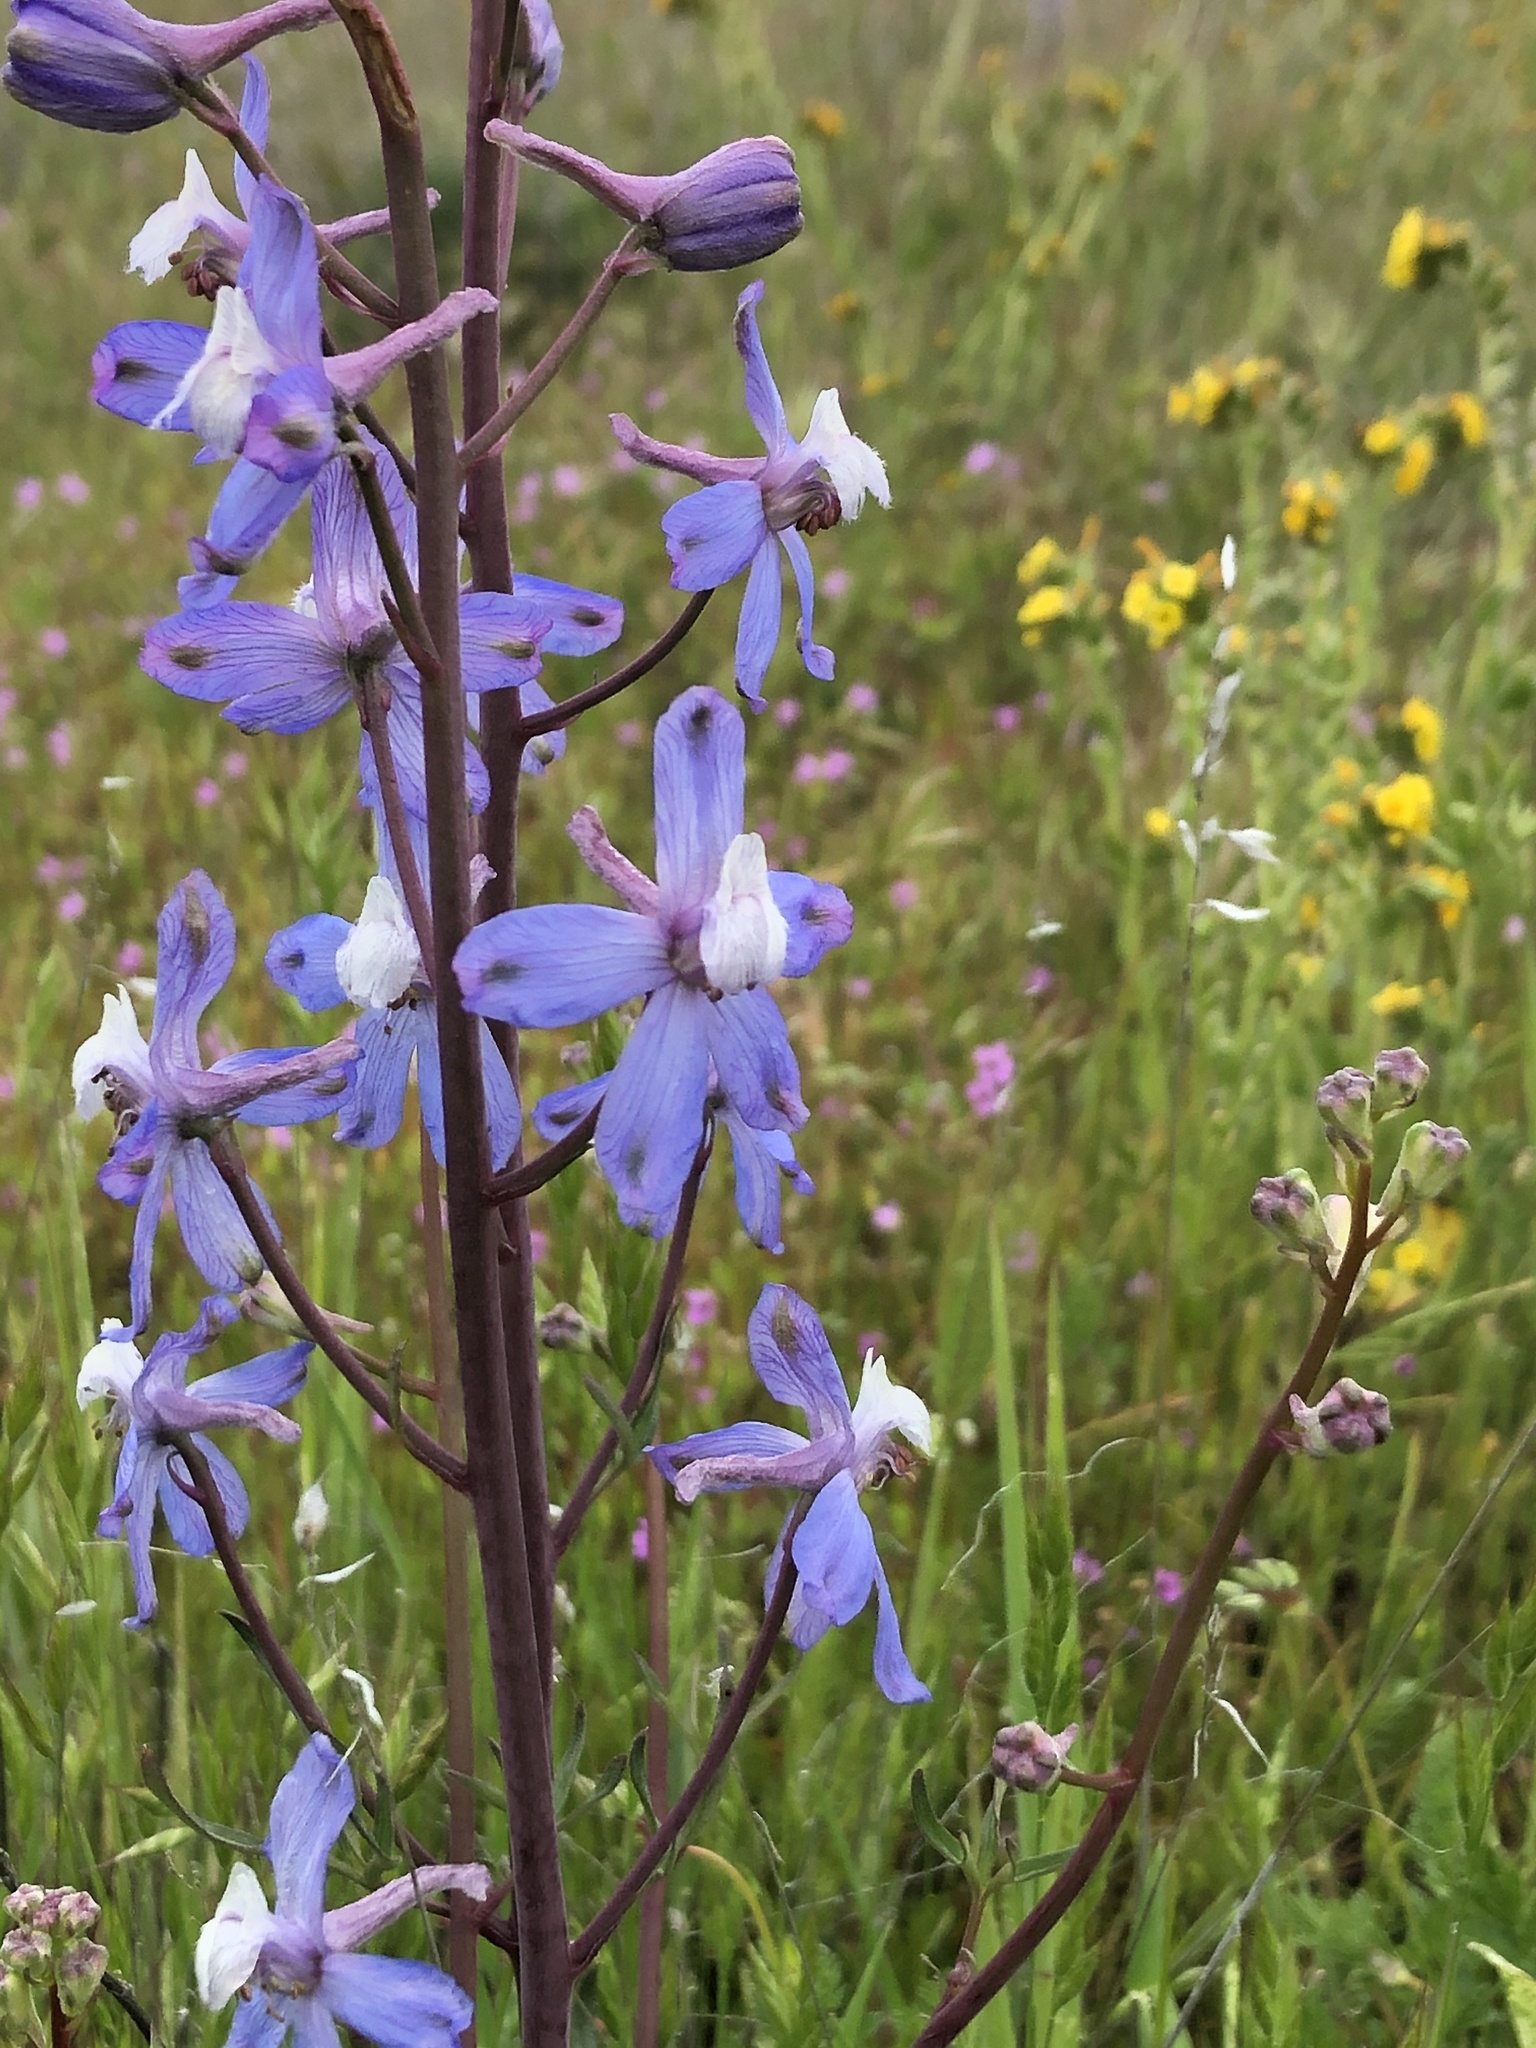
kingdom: Plantae
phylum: Tracheophyta
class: Magnoliopsida
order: Ranunculales
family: Ranunculaceae
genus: Delphinium
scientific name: Delphinium recurvatum
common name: Recurved larkspur
